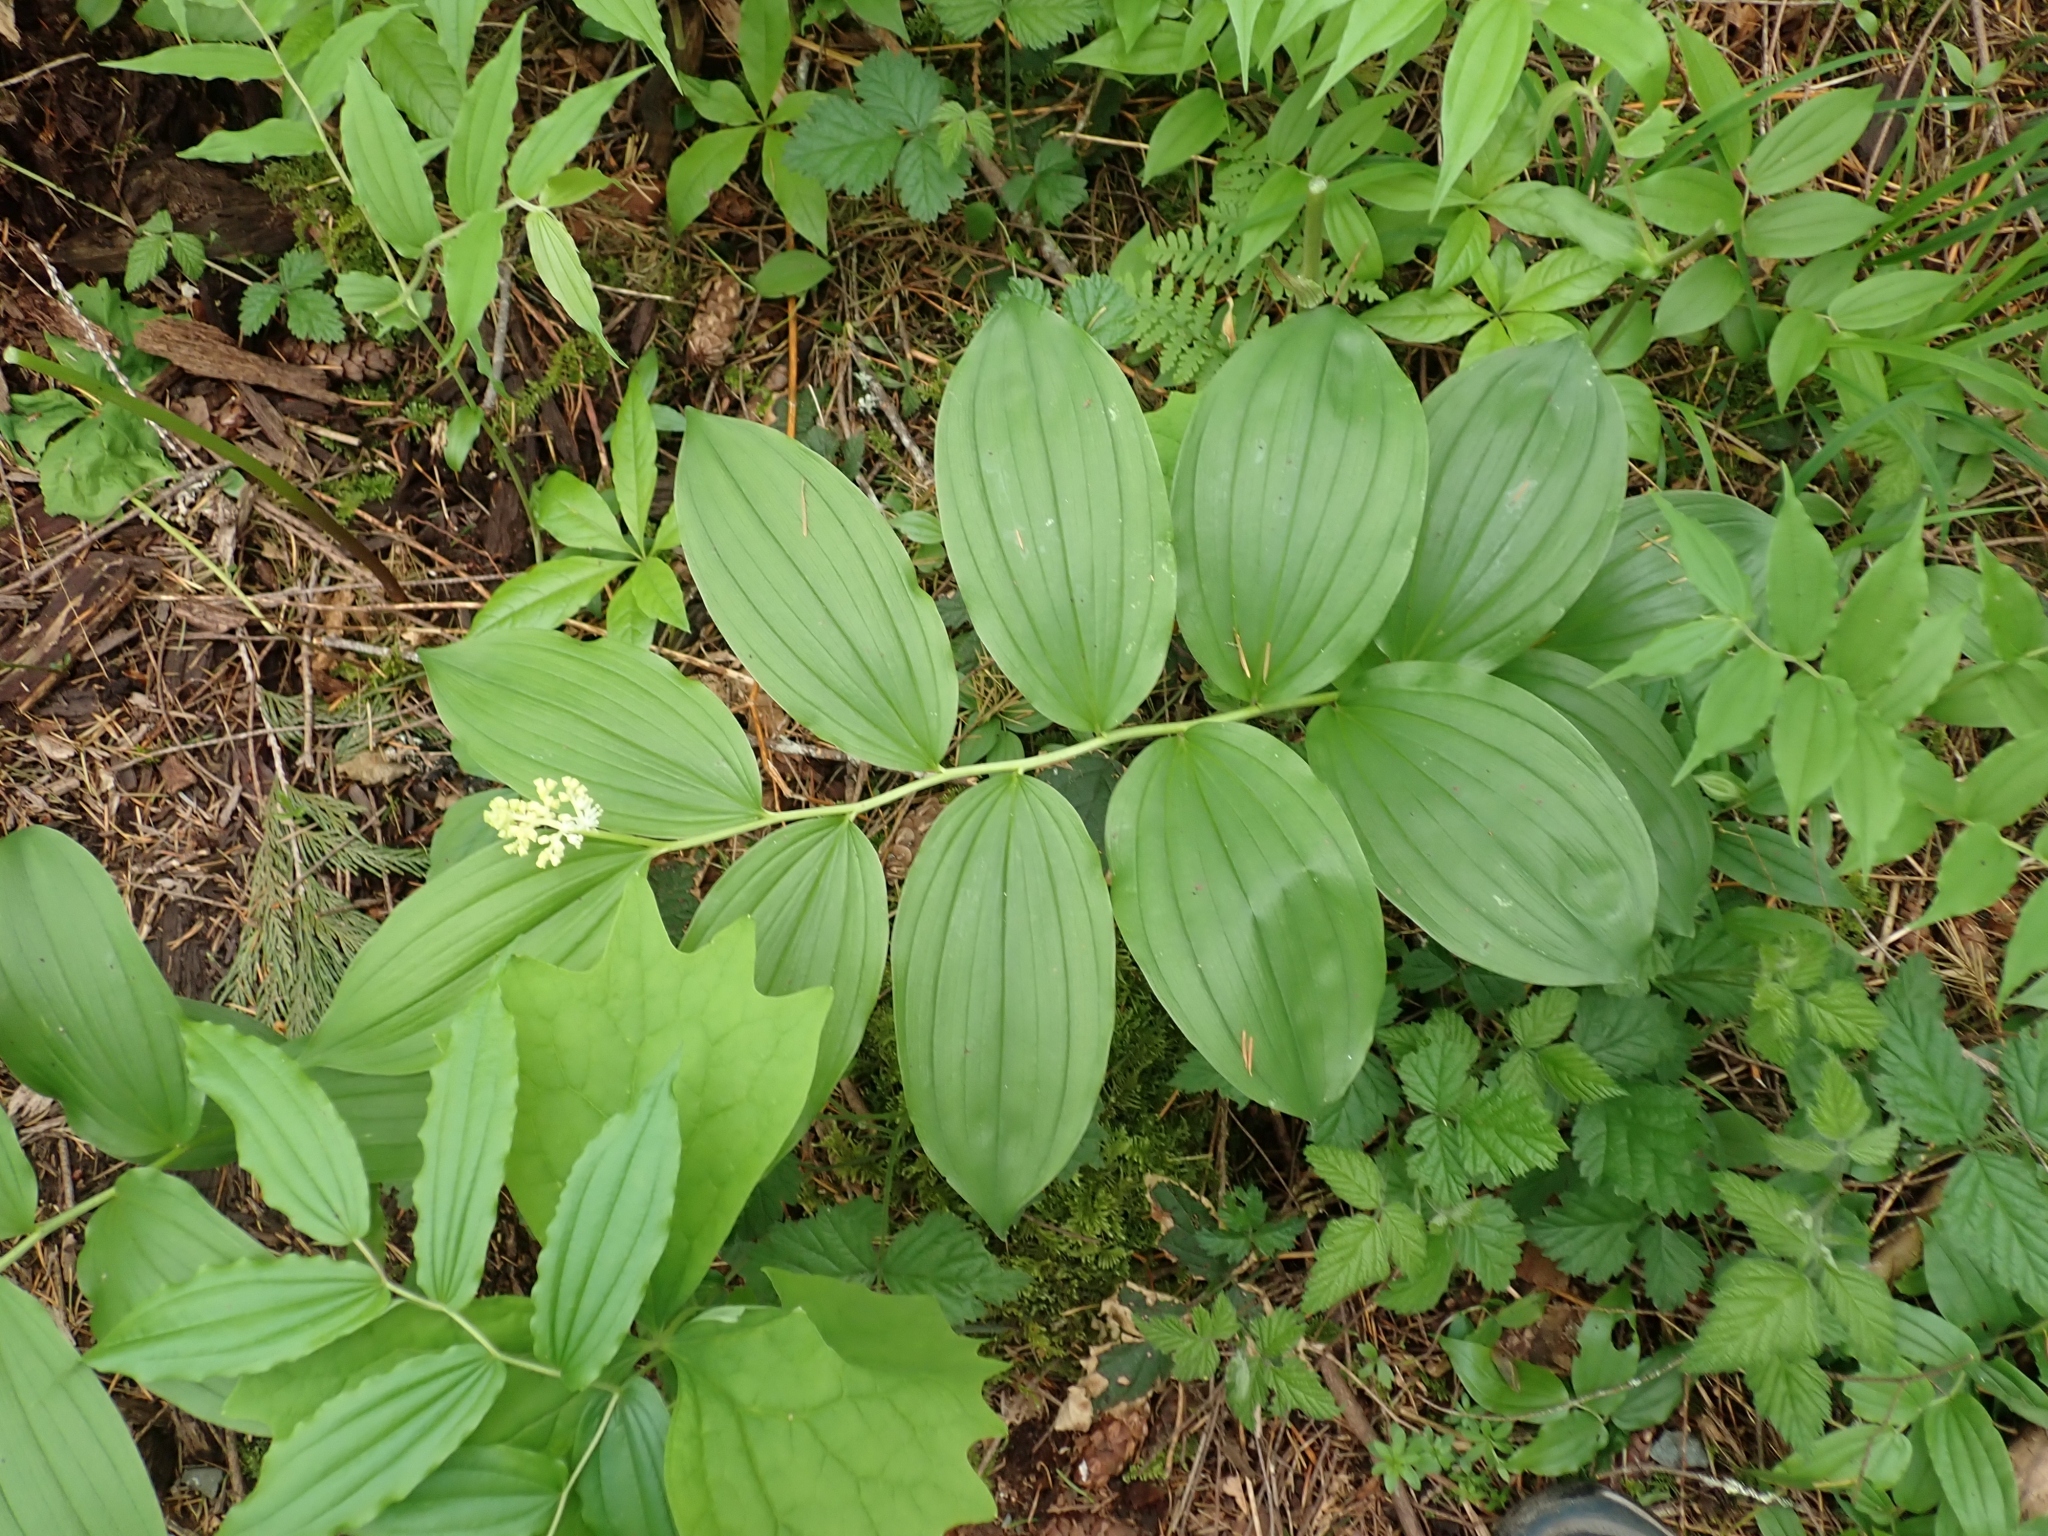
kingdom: Plantae
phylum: Tracheophyta
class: Liliopsida
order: Asparagales
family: Asparagaceae
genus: Maianthemum
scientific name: Maianthemum racemosum
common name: False spikenard
